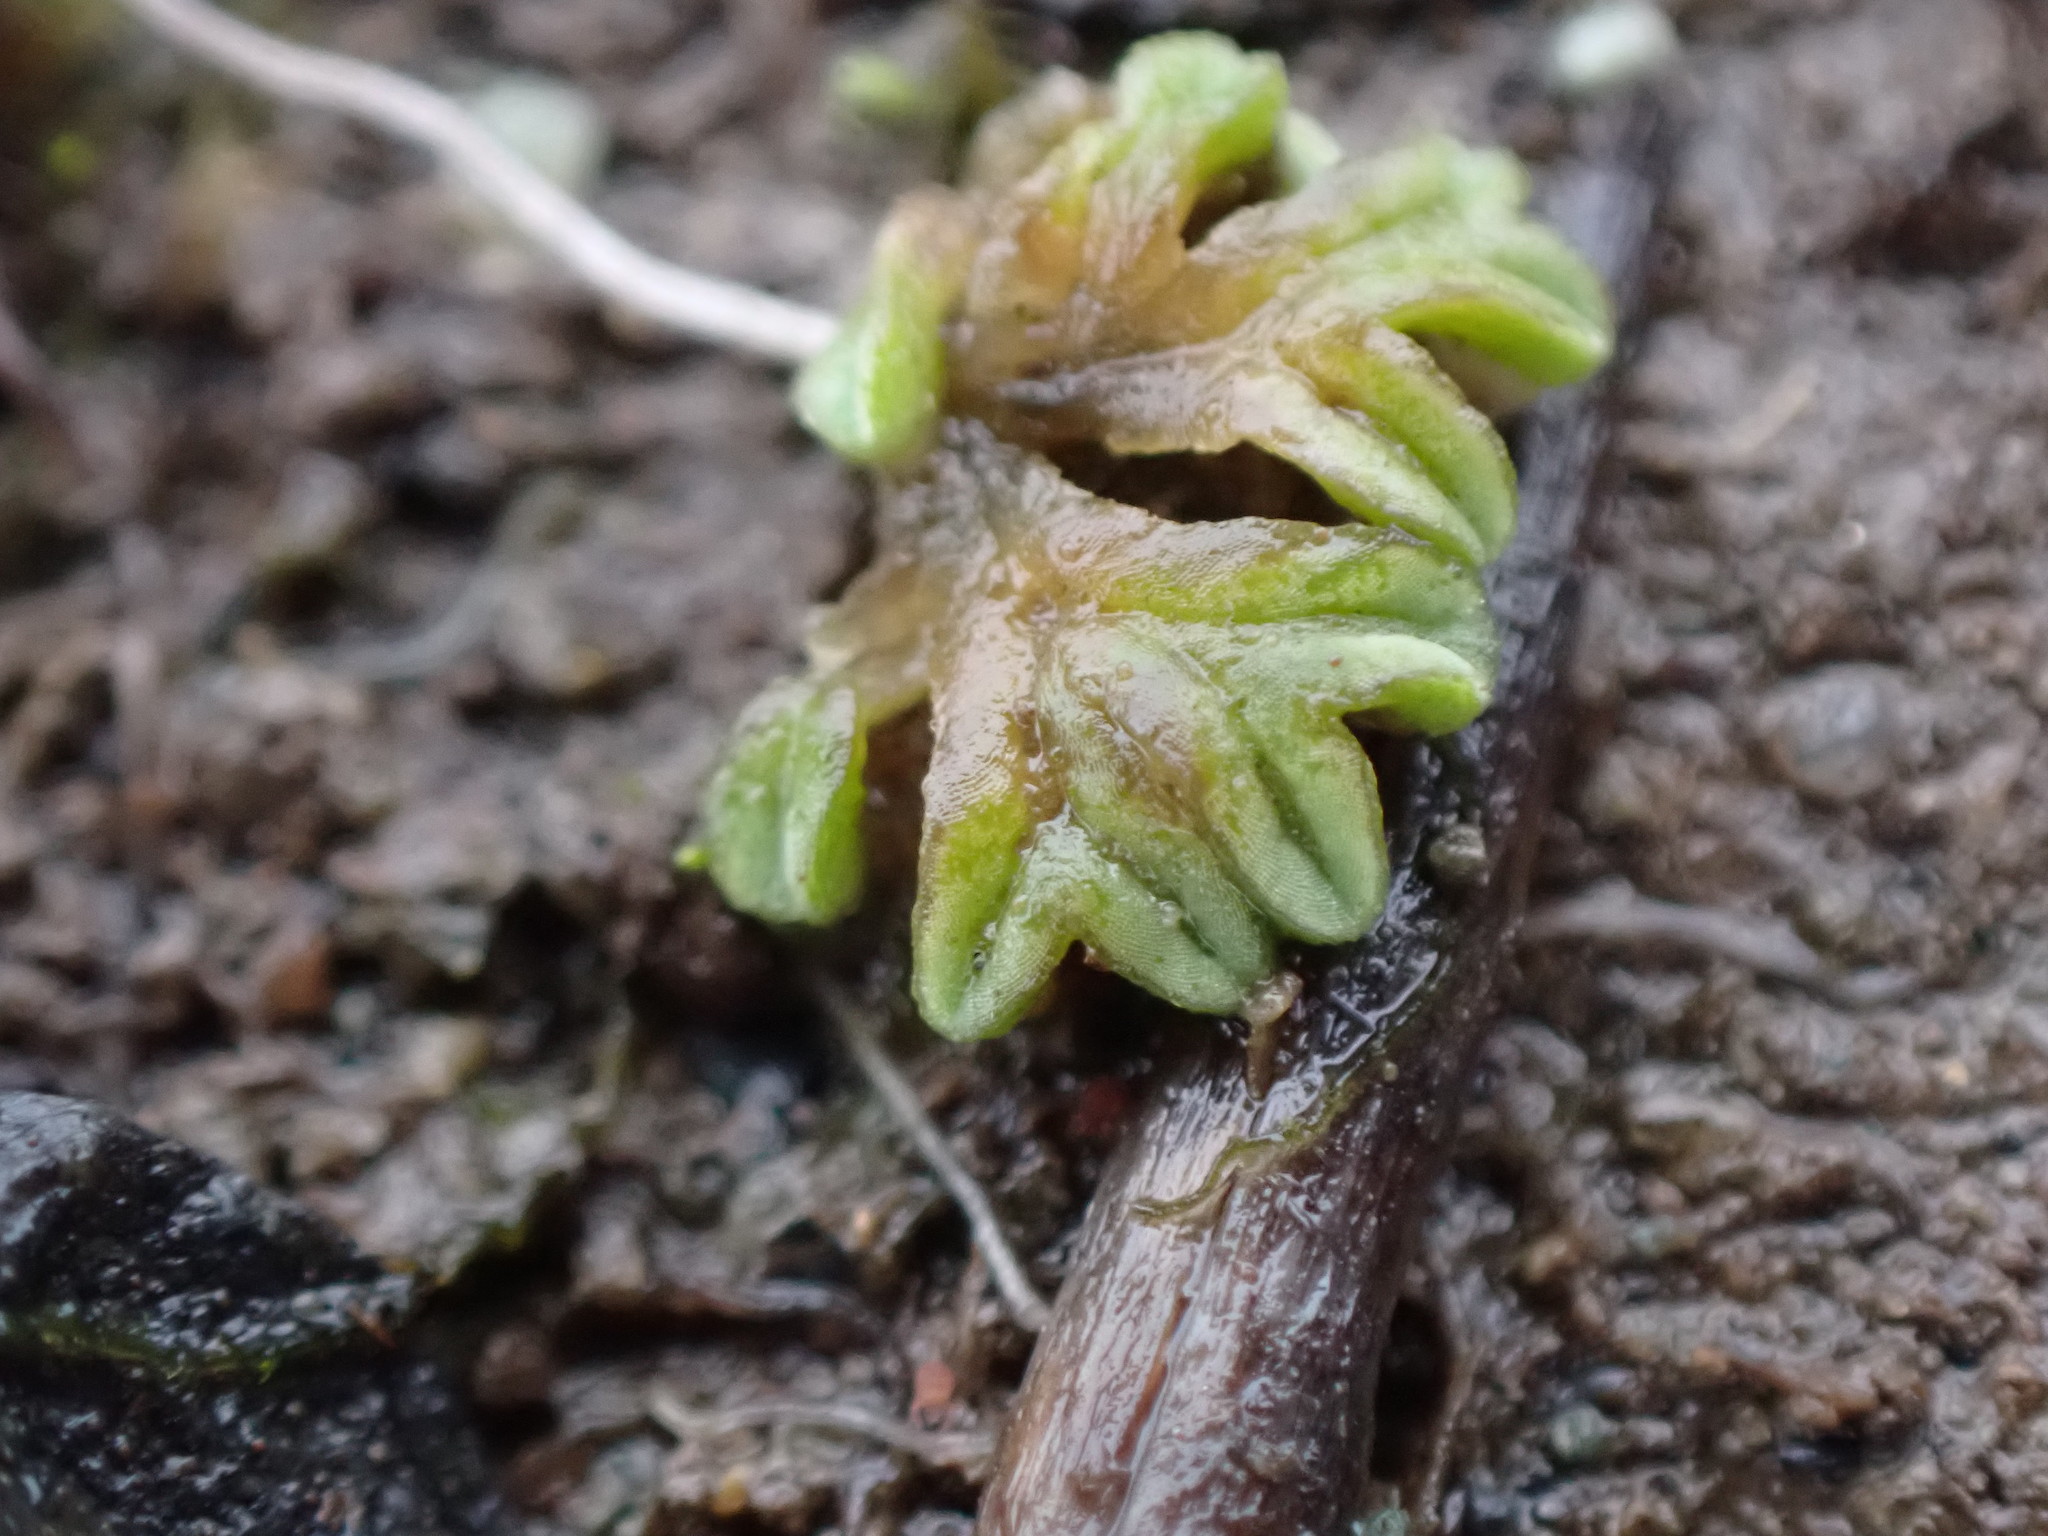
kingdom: Plantae
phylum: Marchantiophyta
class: Marchantiopsida
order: Marchantiales
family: Ricciaceae
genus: Riccia
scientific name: Riccia sorocarpa
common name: Common crystalwort
